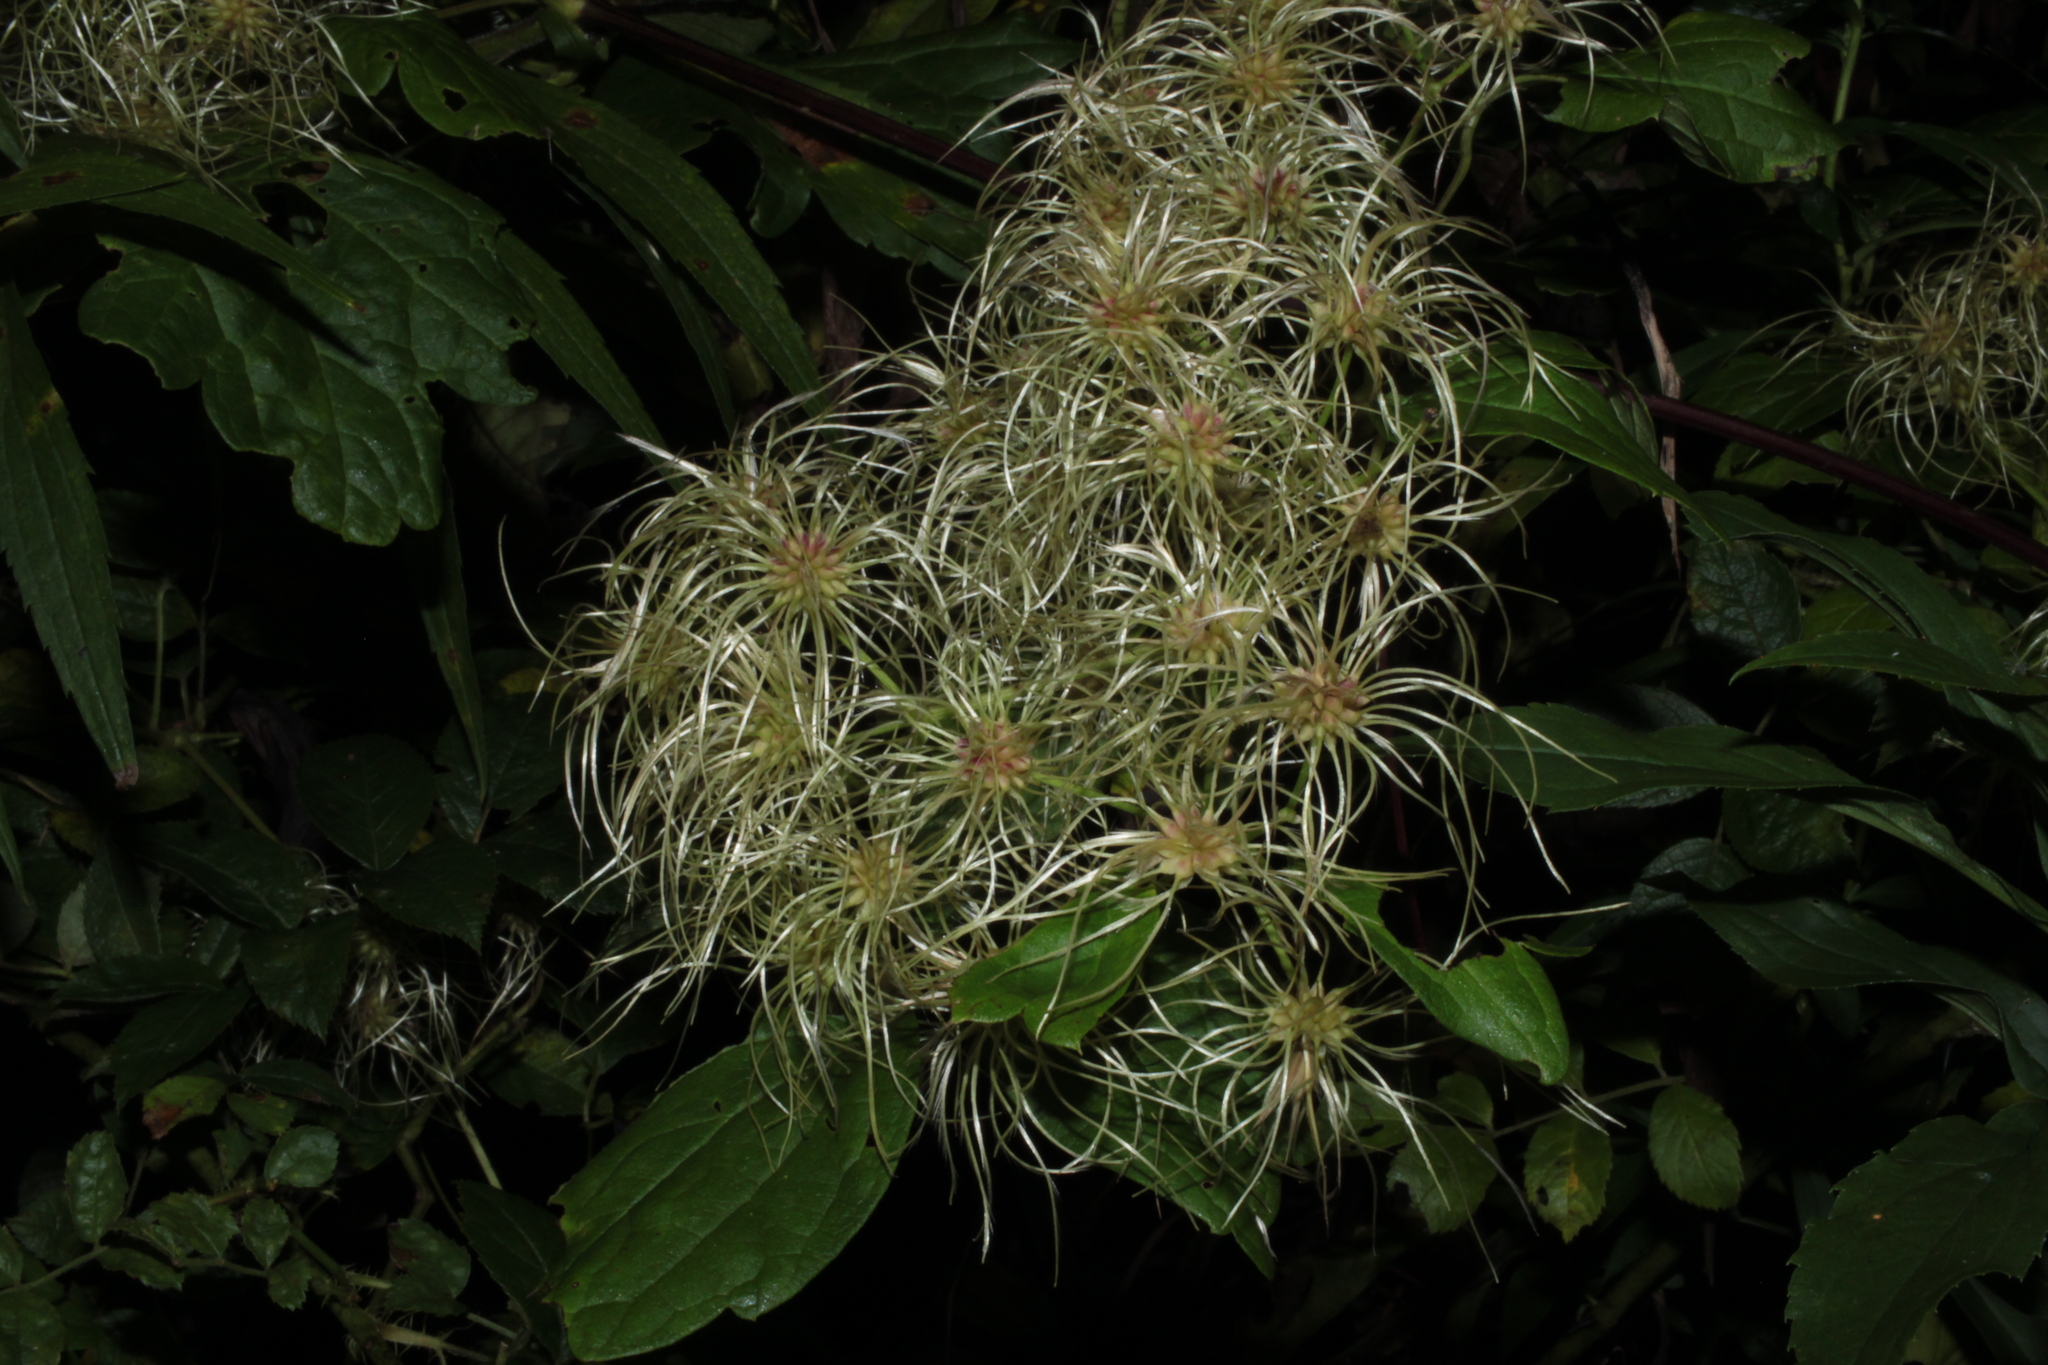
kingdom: Plantae
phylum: Tracheophyta
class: Magnoliopsida
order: Ranunculales
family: Ranunculaceae
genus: Clematis
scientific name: Clematis virginiana
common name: Virgin's-bower
